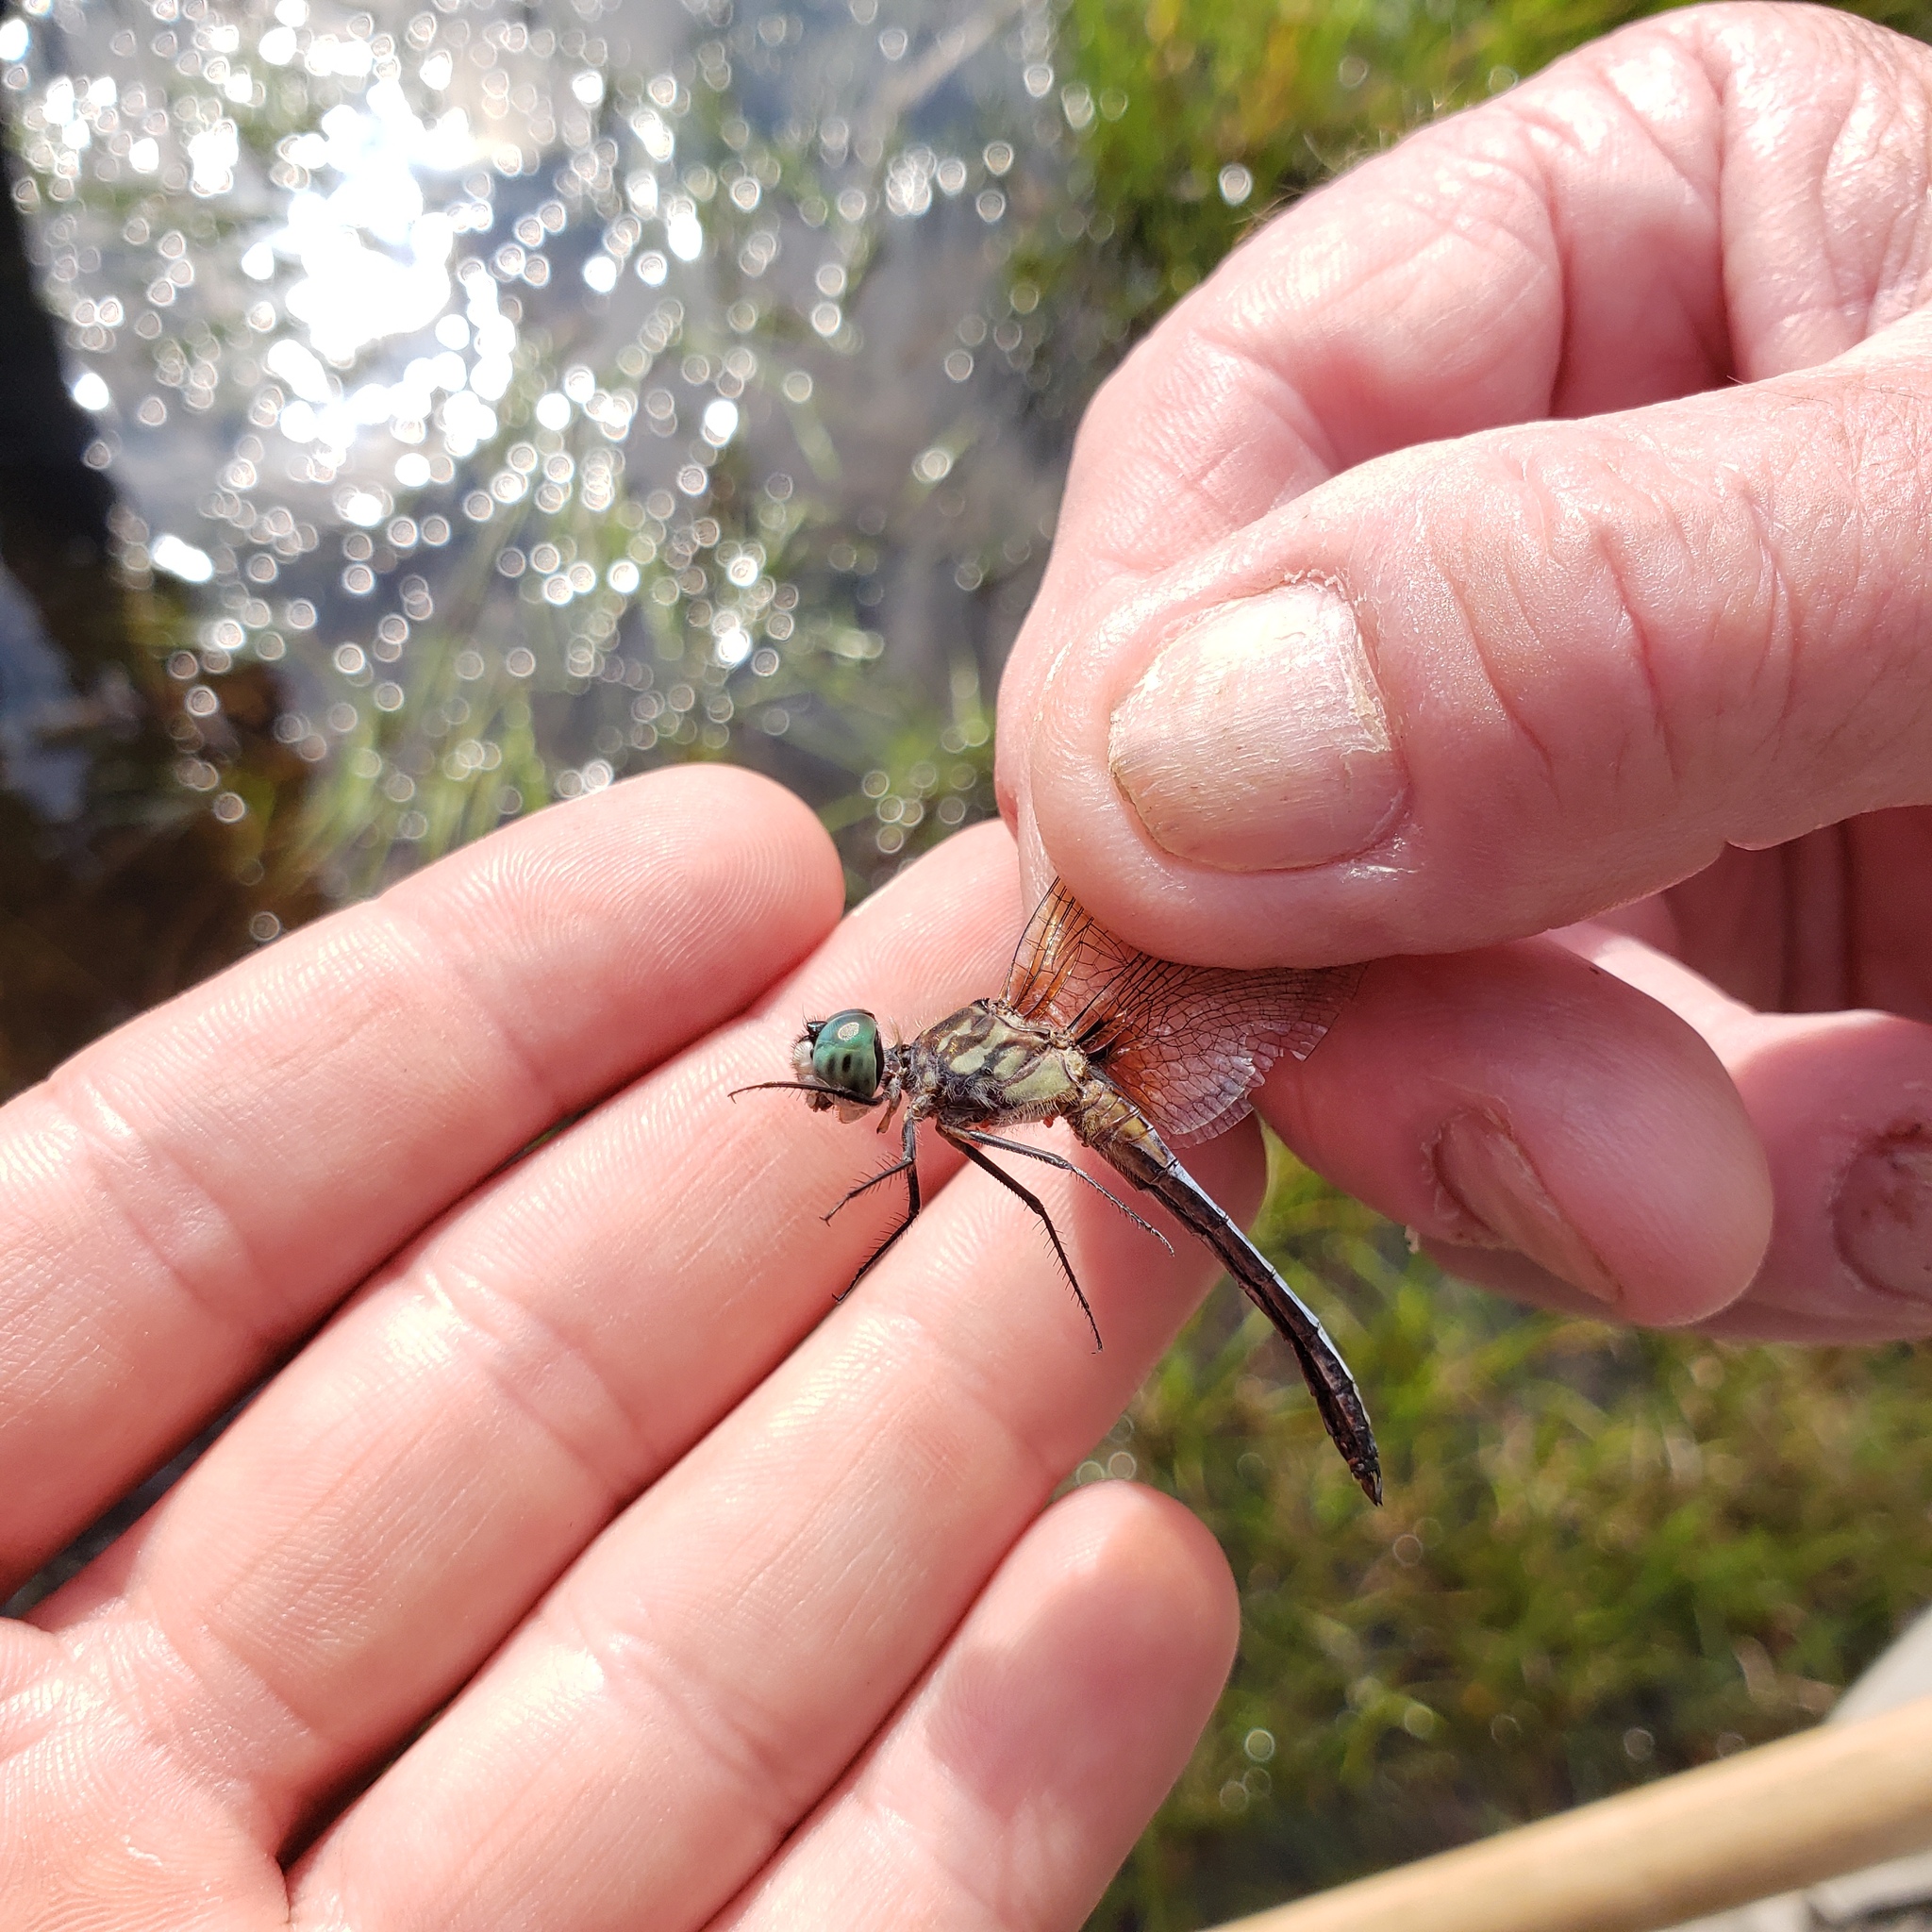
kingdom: Animalia
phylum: Arthropoda
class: Insecta
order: Odonata
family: Libellulidae
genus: Pachydiplax
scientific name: Pachydiplax longipennis
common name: Blue dasher
